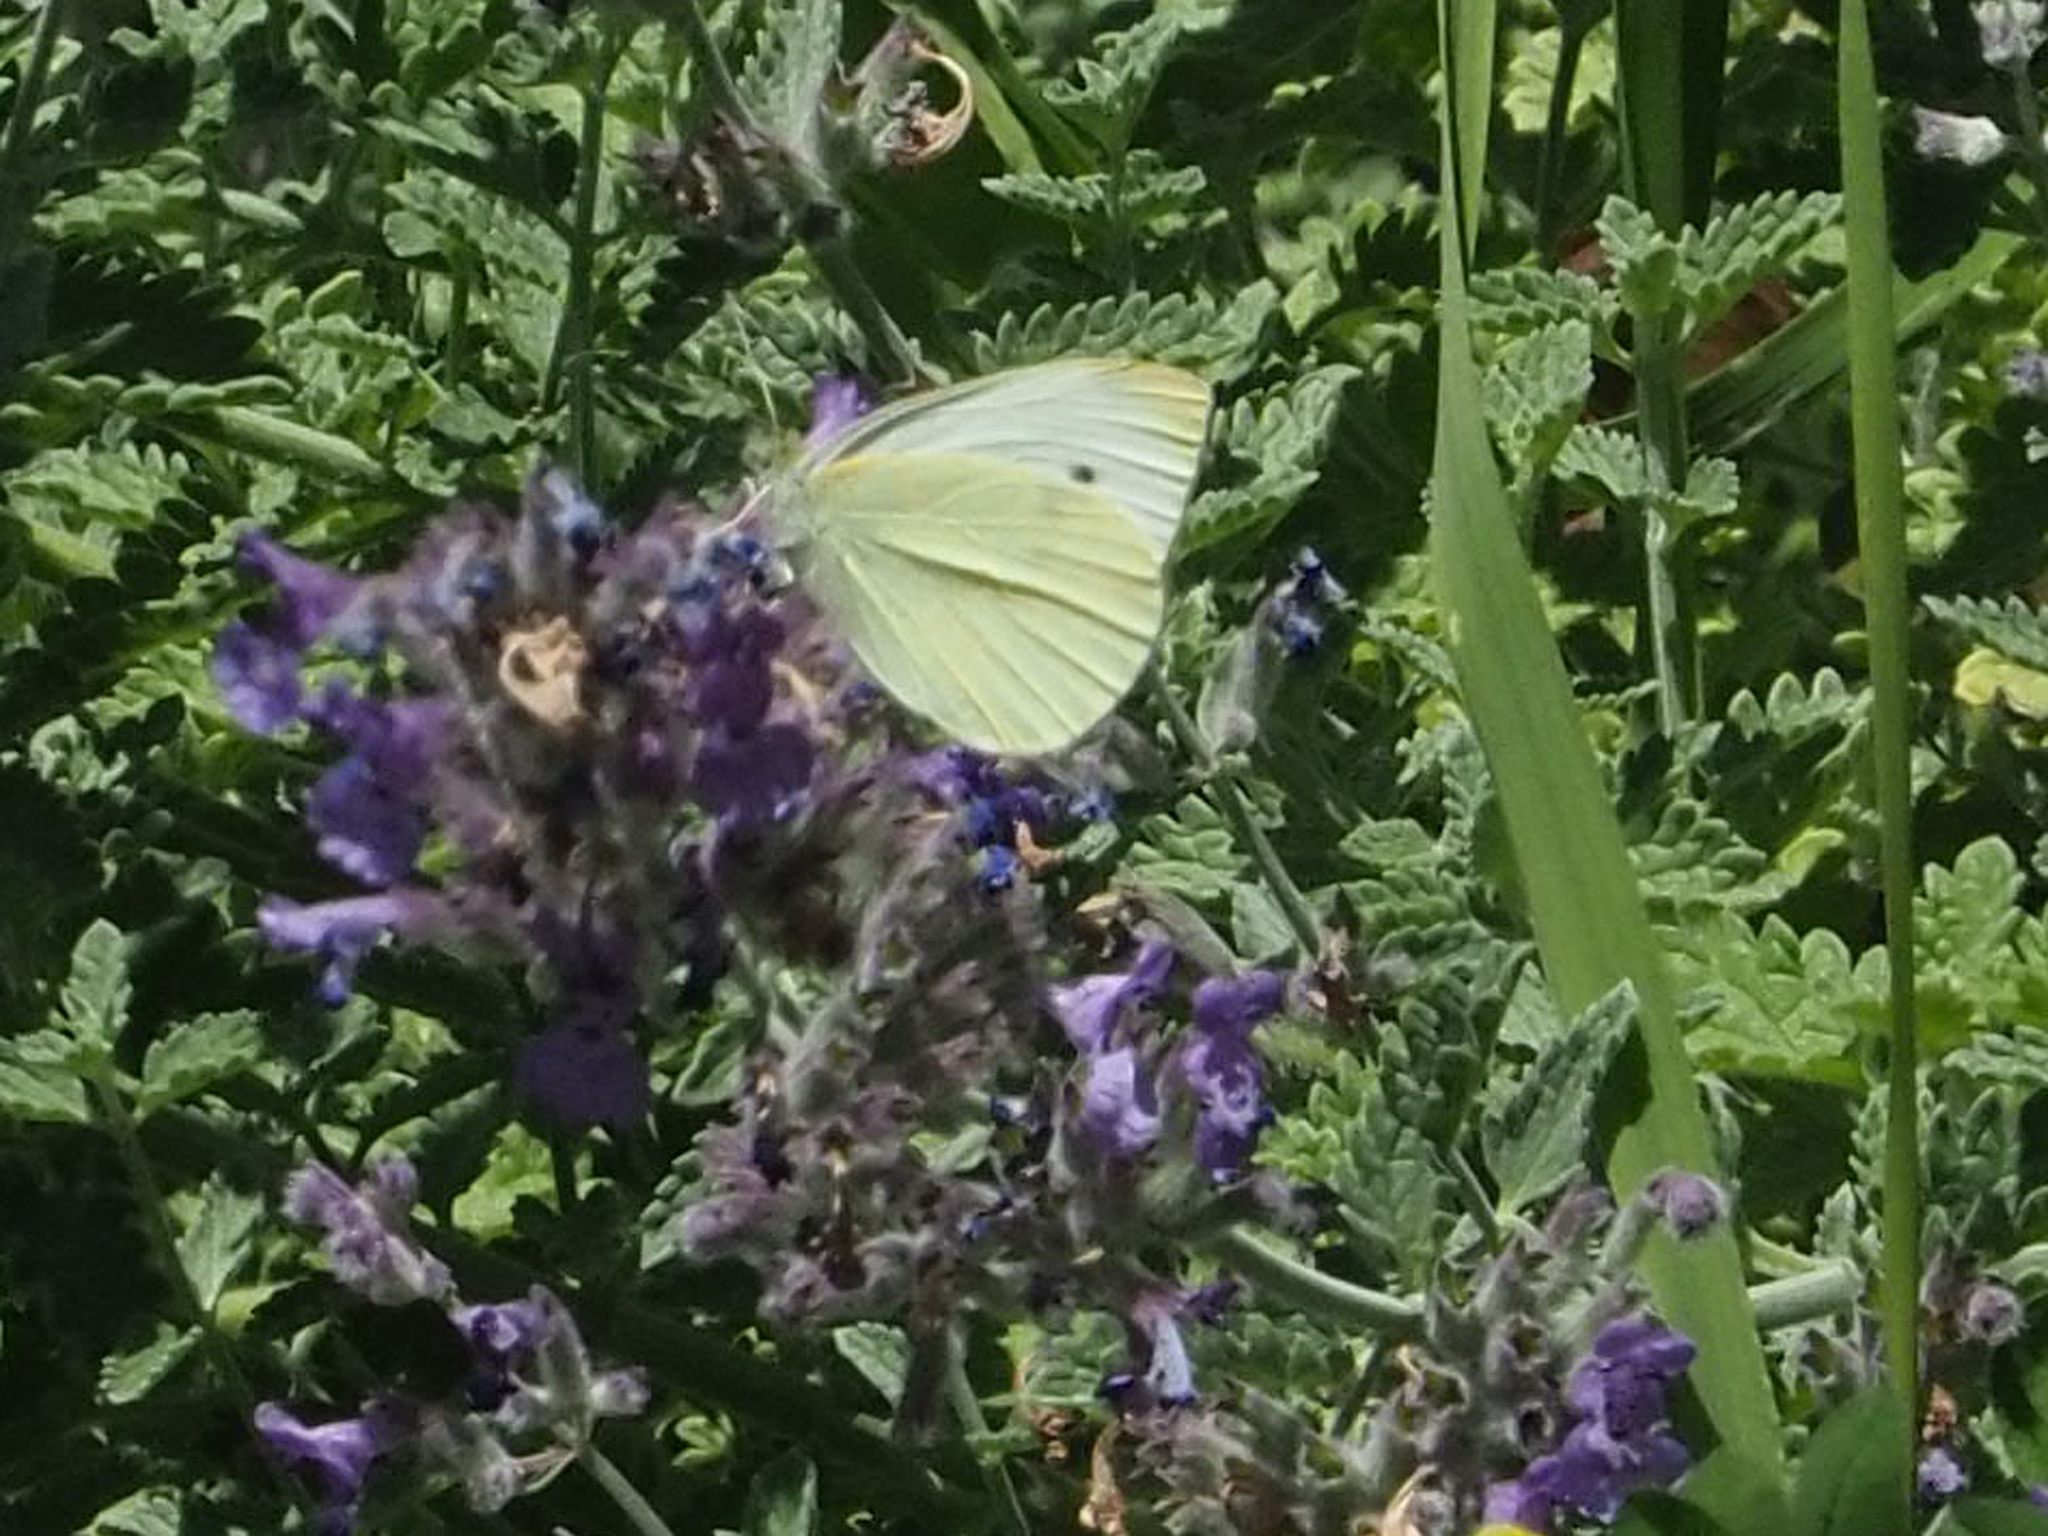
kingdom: Animalia
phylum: Arthropoda
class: Insecta
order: Lepidoptera
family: Pieridae
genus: Pieris
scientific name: Pieris rapae
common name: Small white
